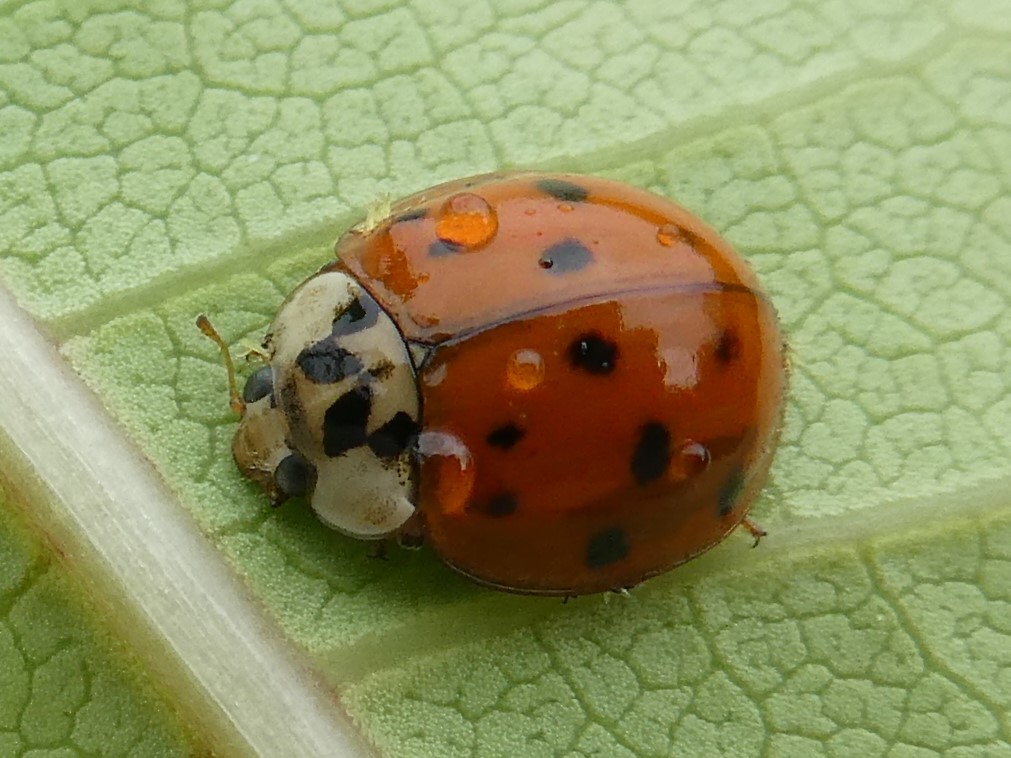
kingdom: Animalia
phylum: Arthropoda
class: Insecta
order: Coleoptera
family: Coccinellidae
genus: Harmonia
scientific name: Harmonia axyridis
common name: Harlequin ladybird
